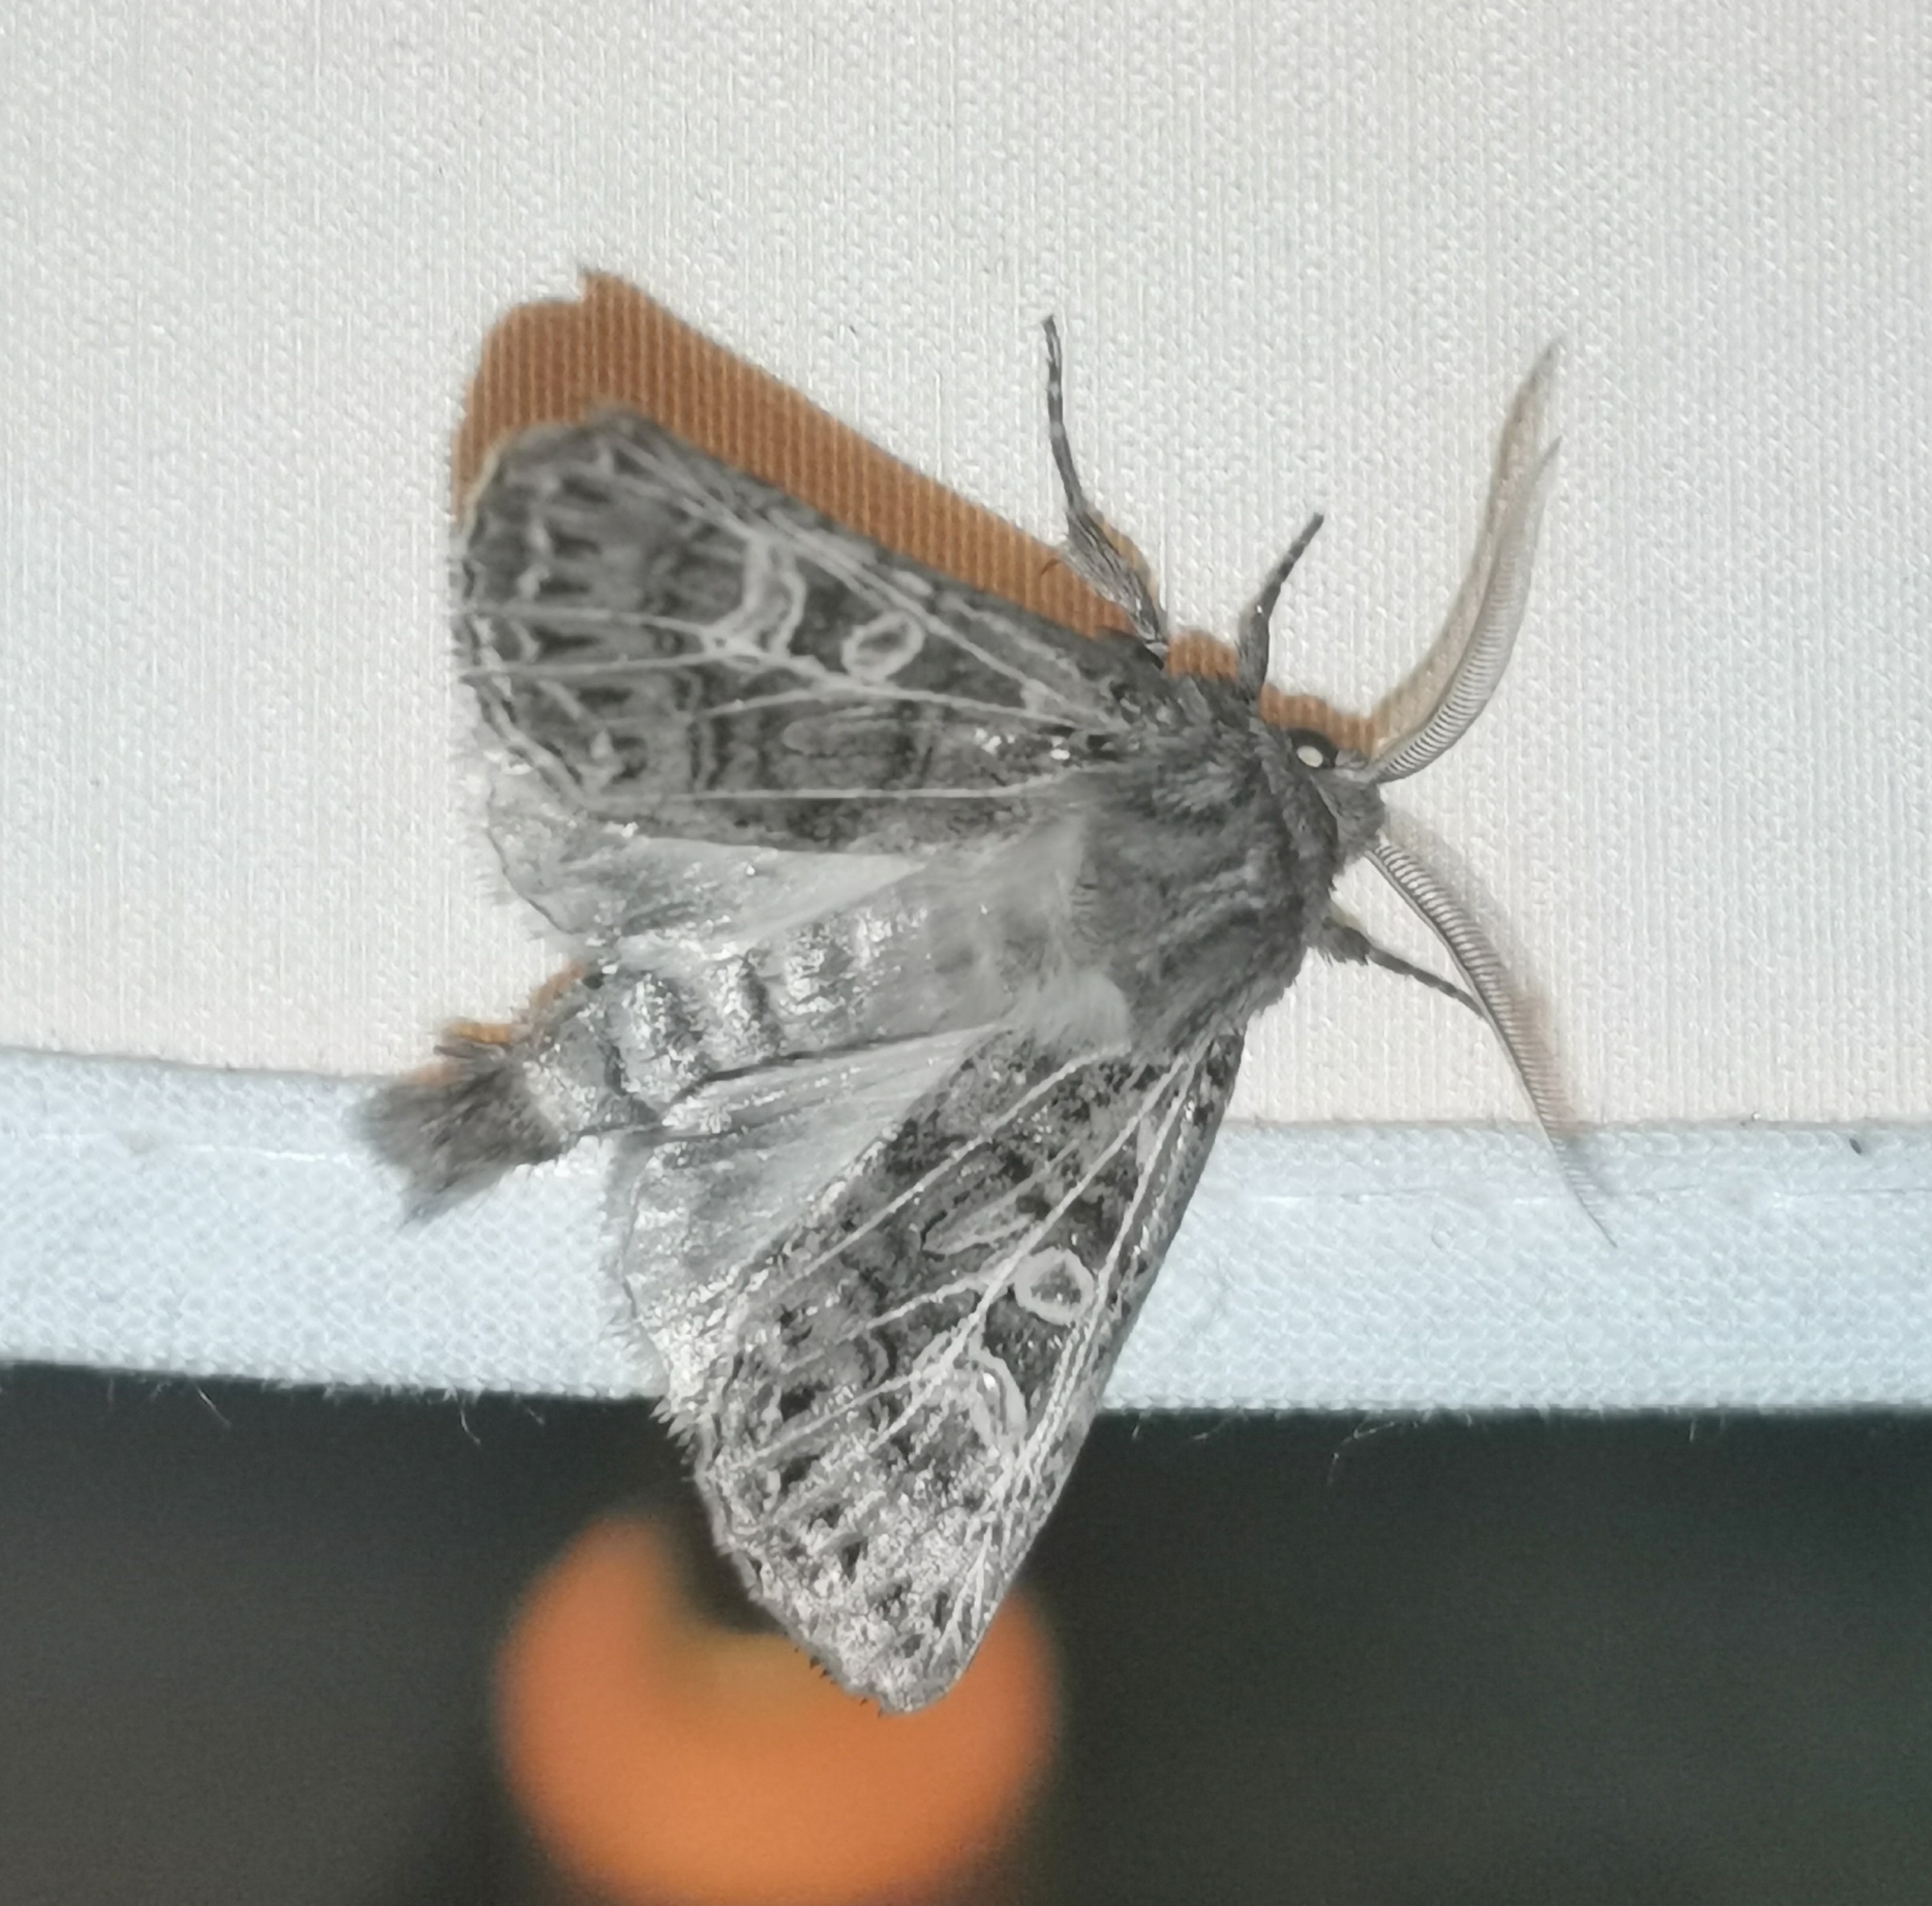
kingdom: Animalia
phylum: Arthropoda
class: Insecta
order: Lepidoptera
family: Noctuidae
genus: Tholera
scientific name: Tholera decimalis
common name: Feathered gothic
